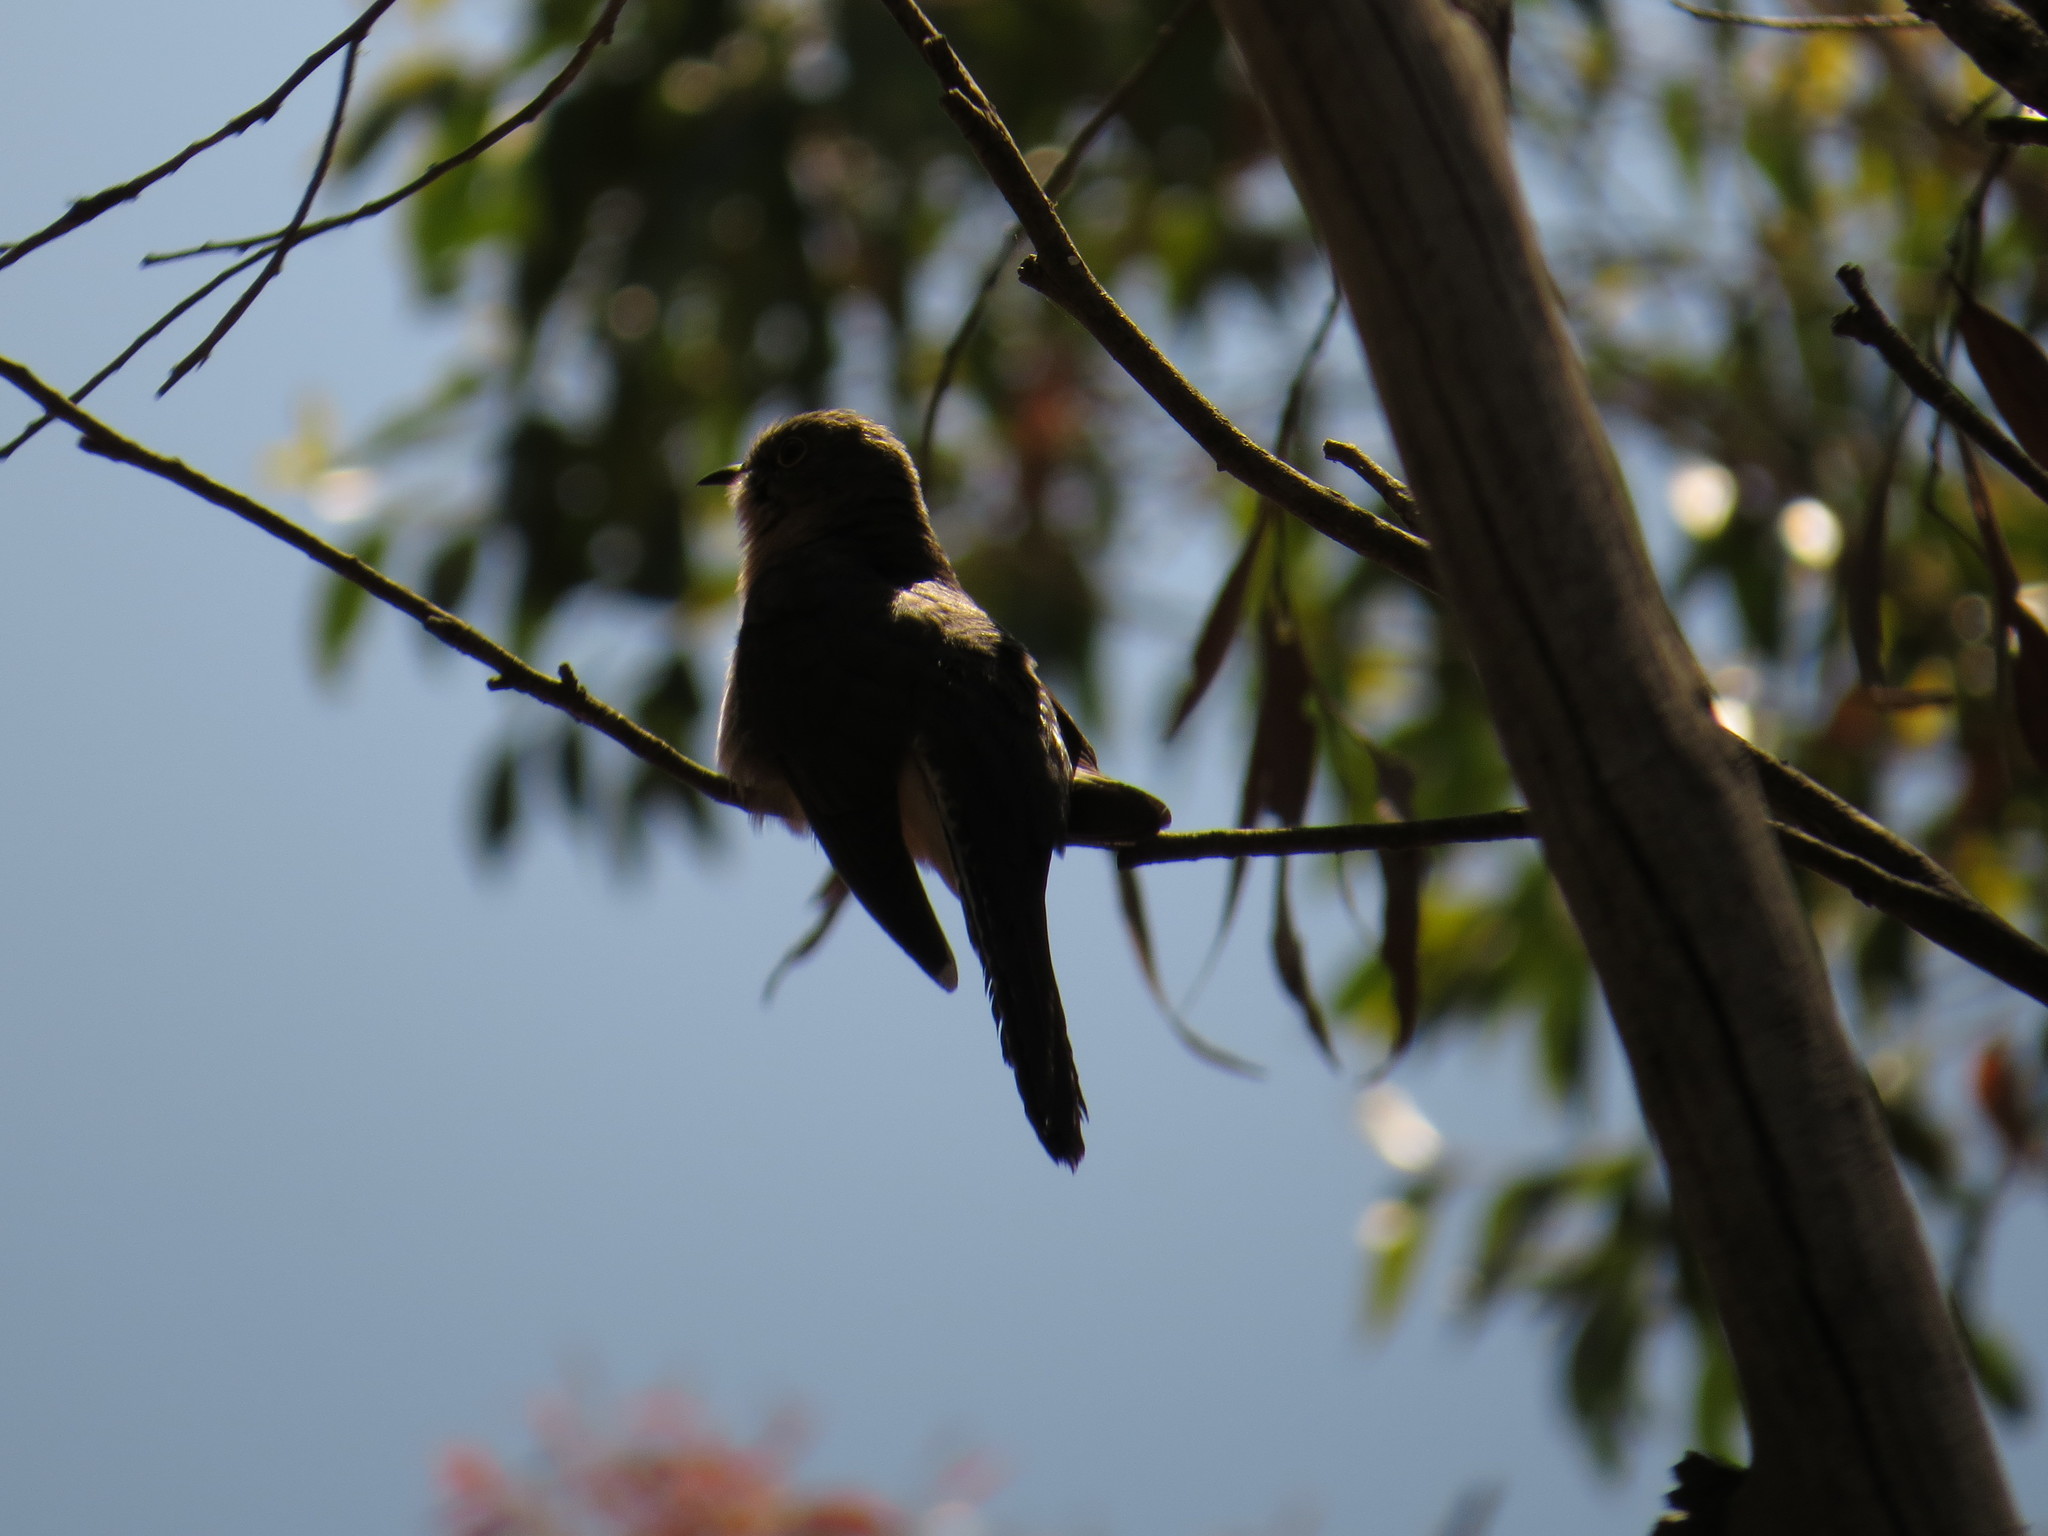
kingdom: Animalia
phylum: Chordata
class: Aves
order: Cuculiformes
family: Cuculidae
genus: Cuculus
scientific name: Cuculus pallidus
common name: Pallid cuckoo
